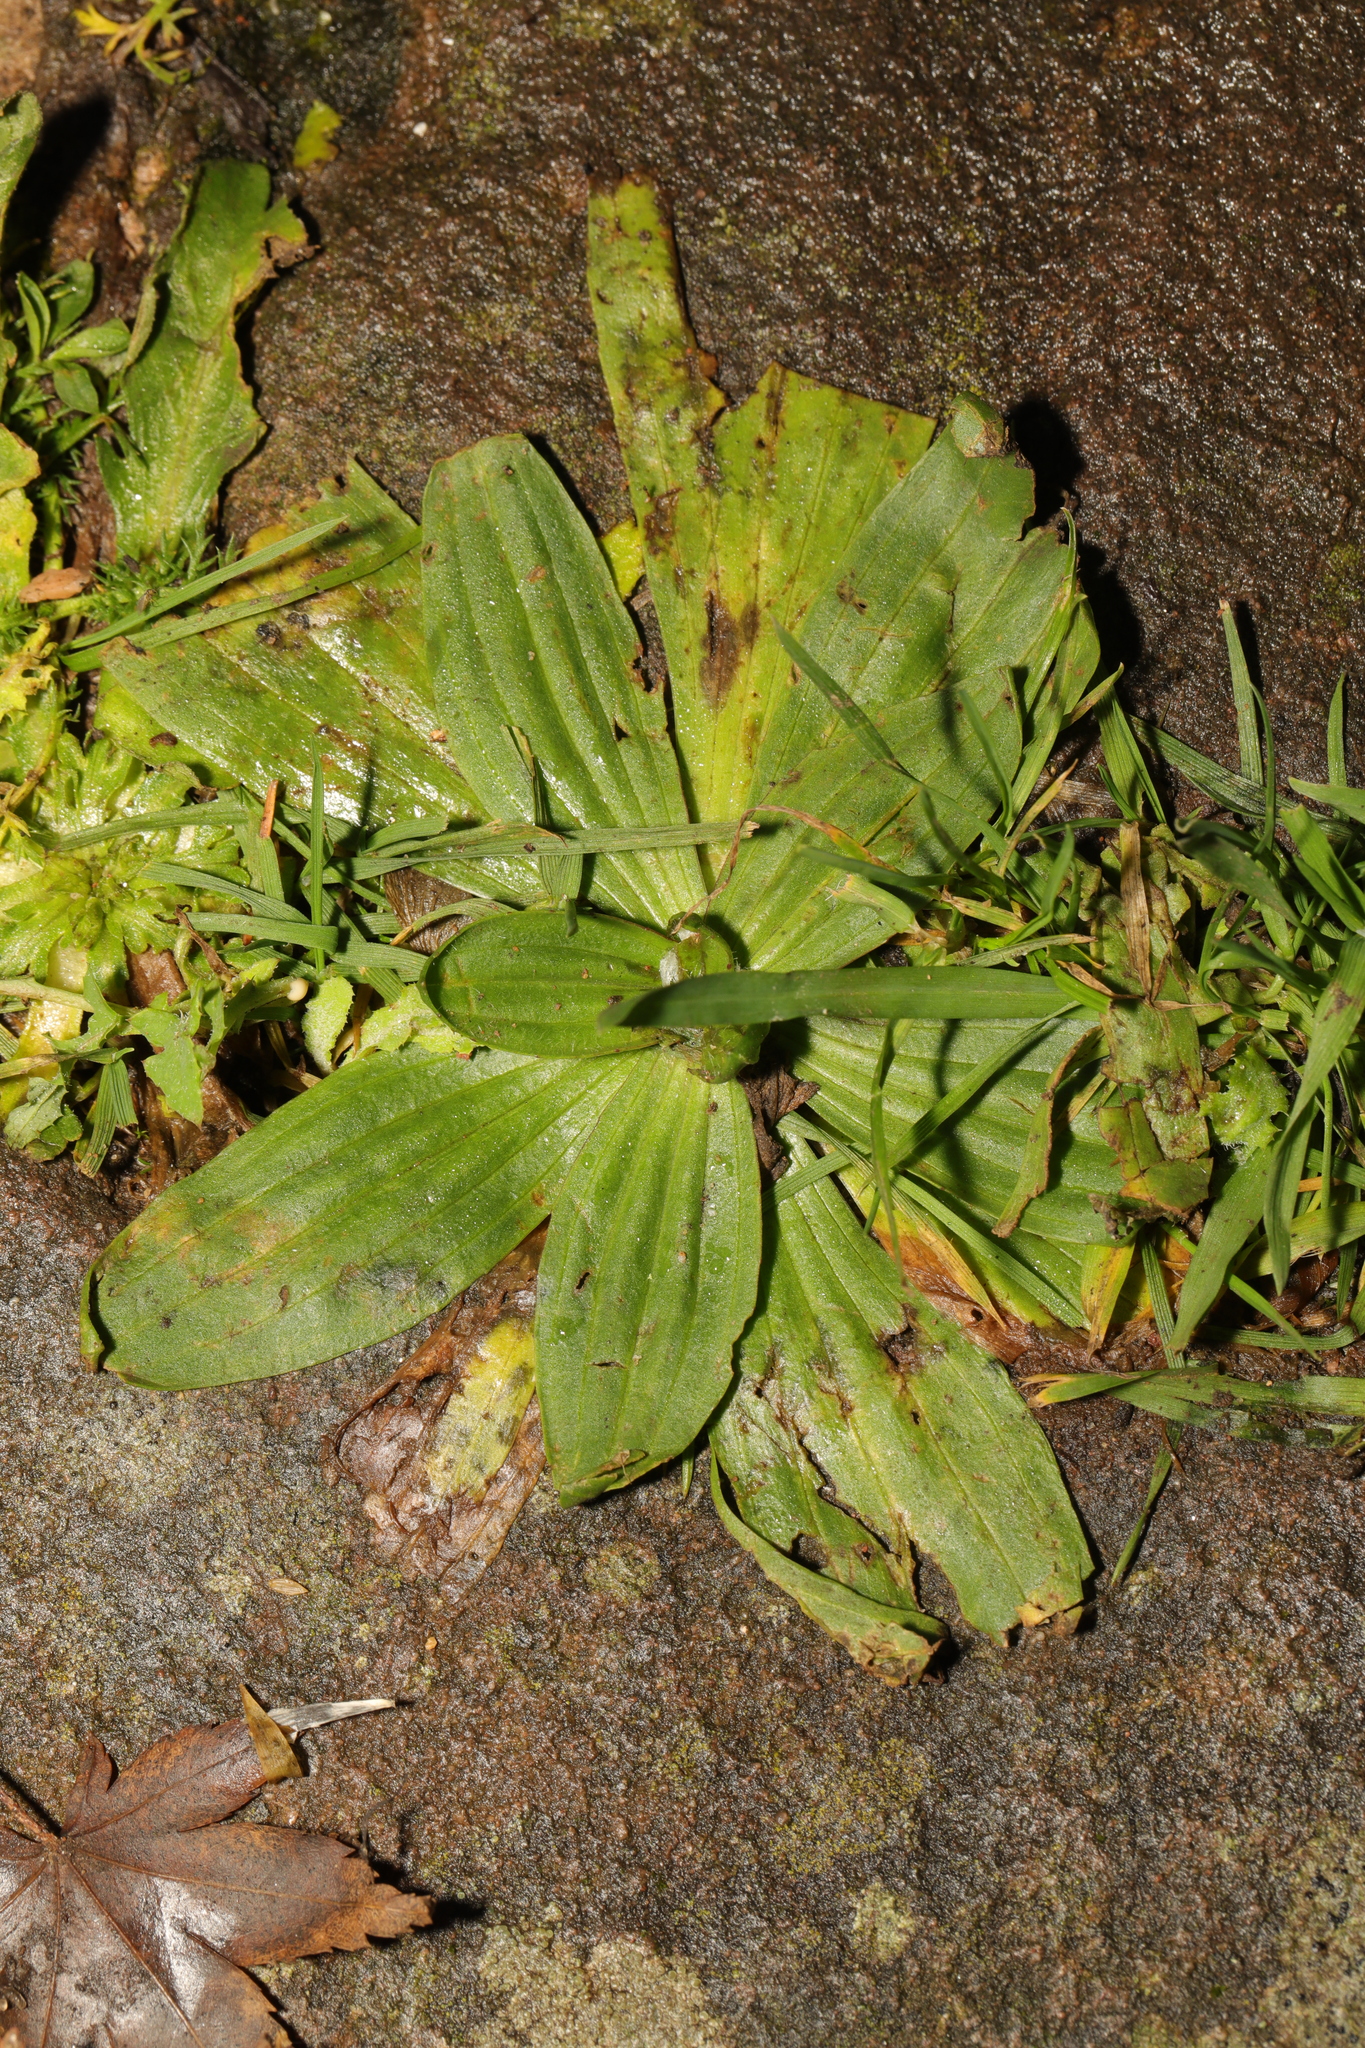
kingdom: Plantae
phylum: Tracheophyta
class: Magnoliopsida
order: Lamiales
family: Plantaginaceae
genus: Plantago
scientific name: Plantago lanceolata
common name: Ribwort plantain
